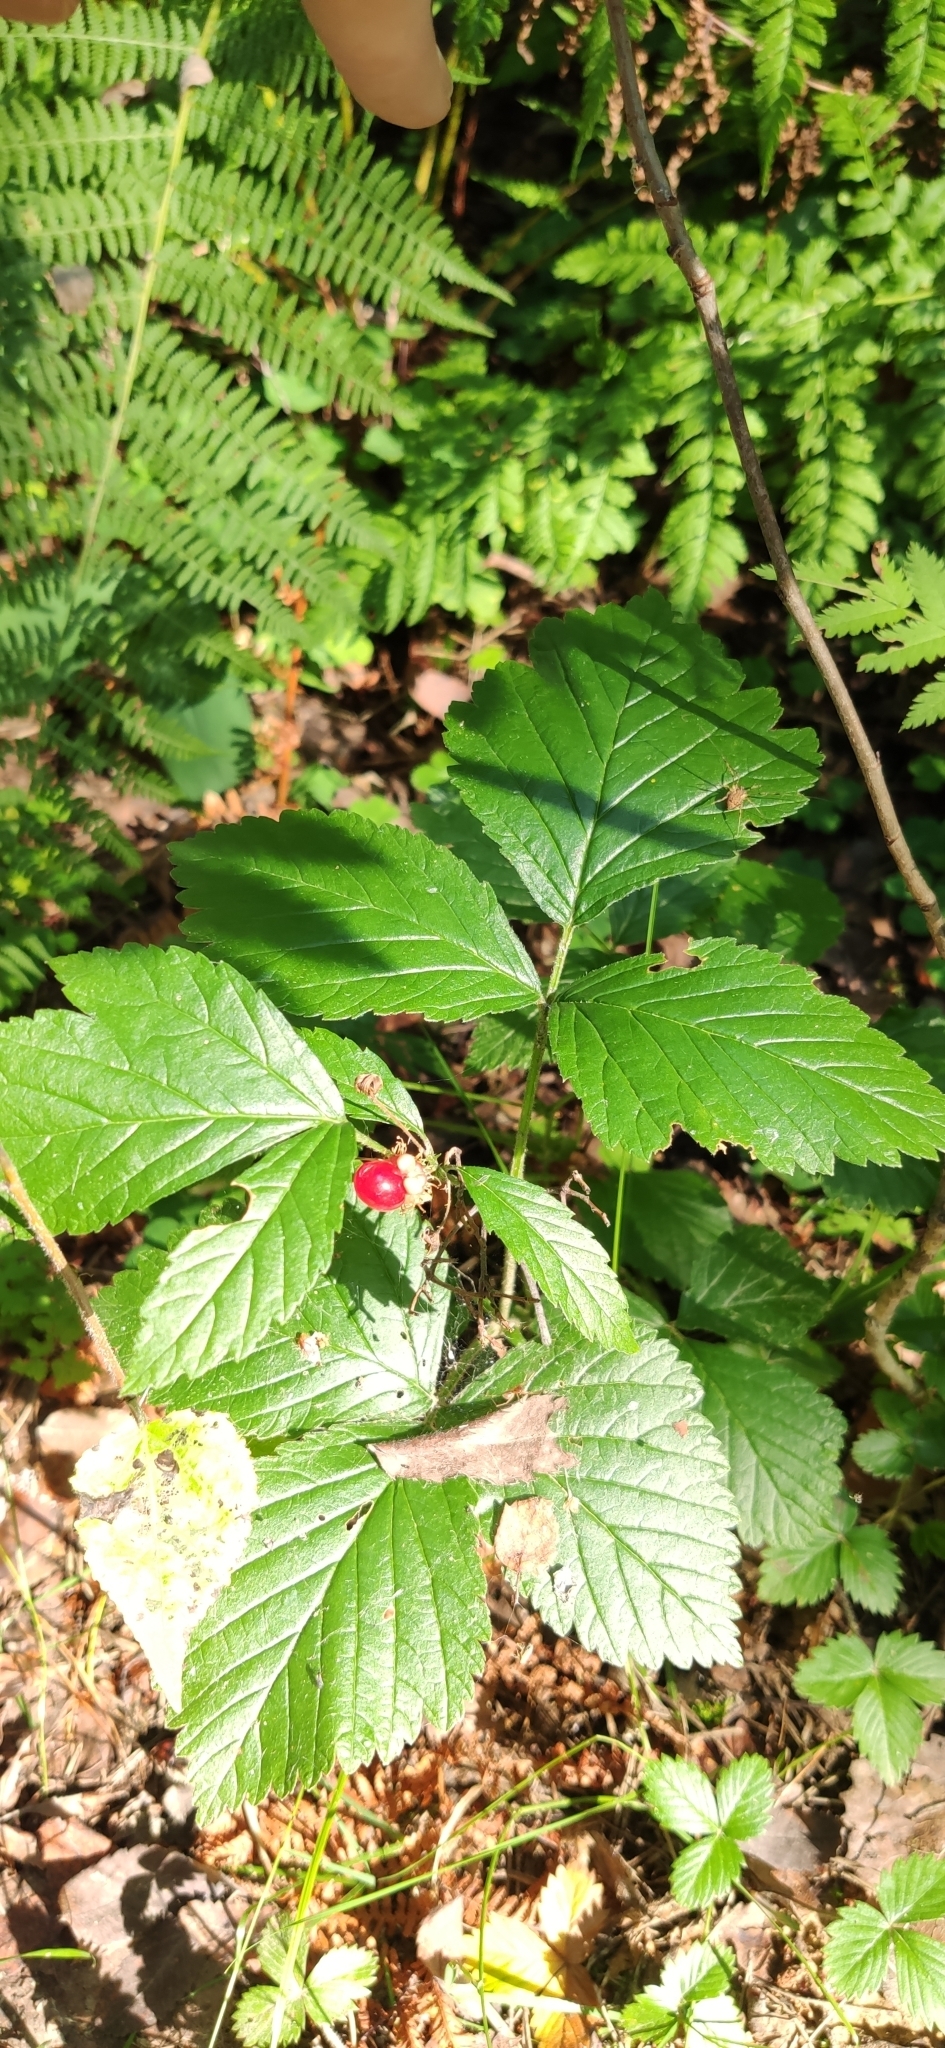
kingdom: Plantae
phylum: Tracheophyta
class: Magnoliopsida
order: Rosales
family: Rosaceae
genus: Rubus
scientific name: Rubus saxatilis
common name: Stone bramble
